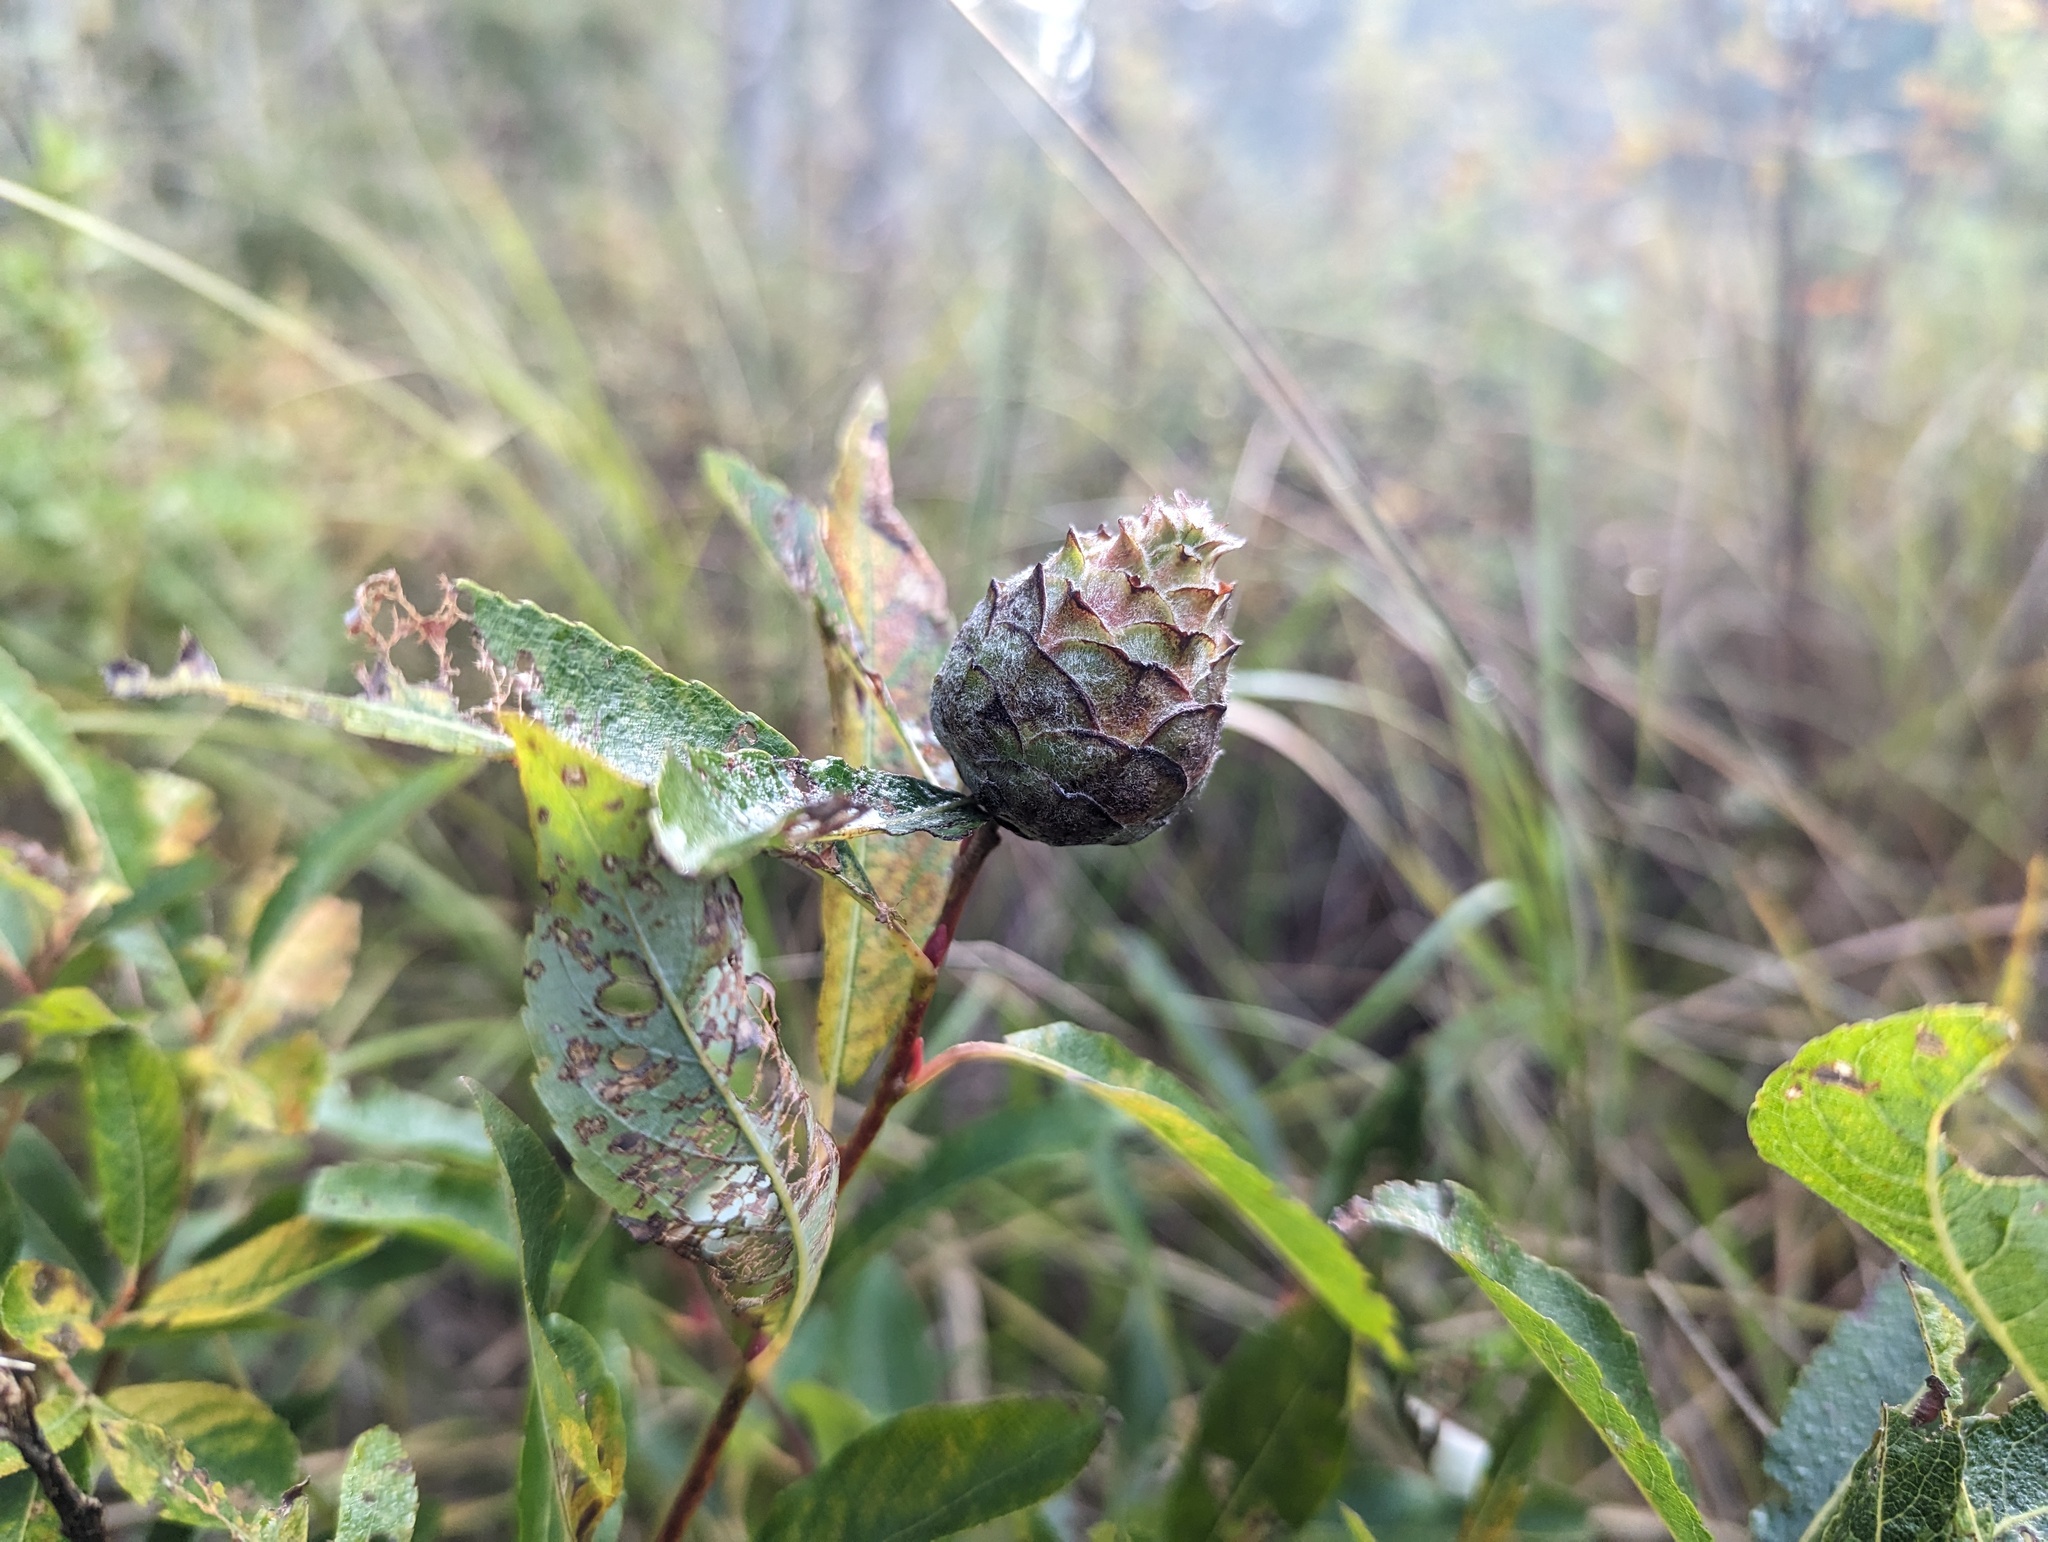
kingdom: Animalia
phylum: Arthropoda
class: Insecta
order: Diptera
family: Cecidomyiidae
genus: Rabdophaga
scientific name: Rabdophaga strobiloides
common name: Willow pinecone gall midge
